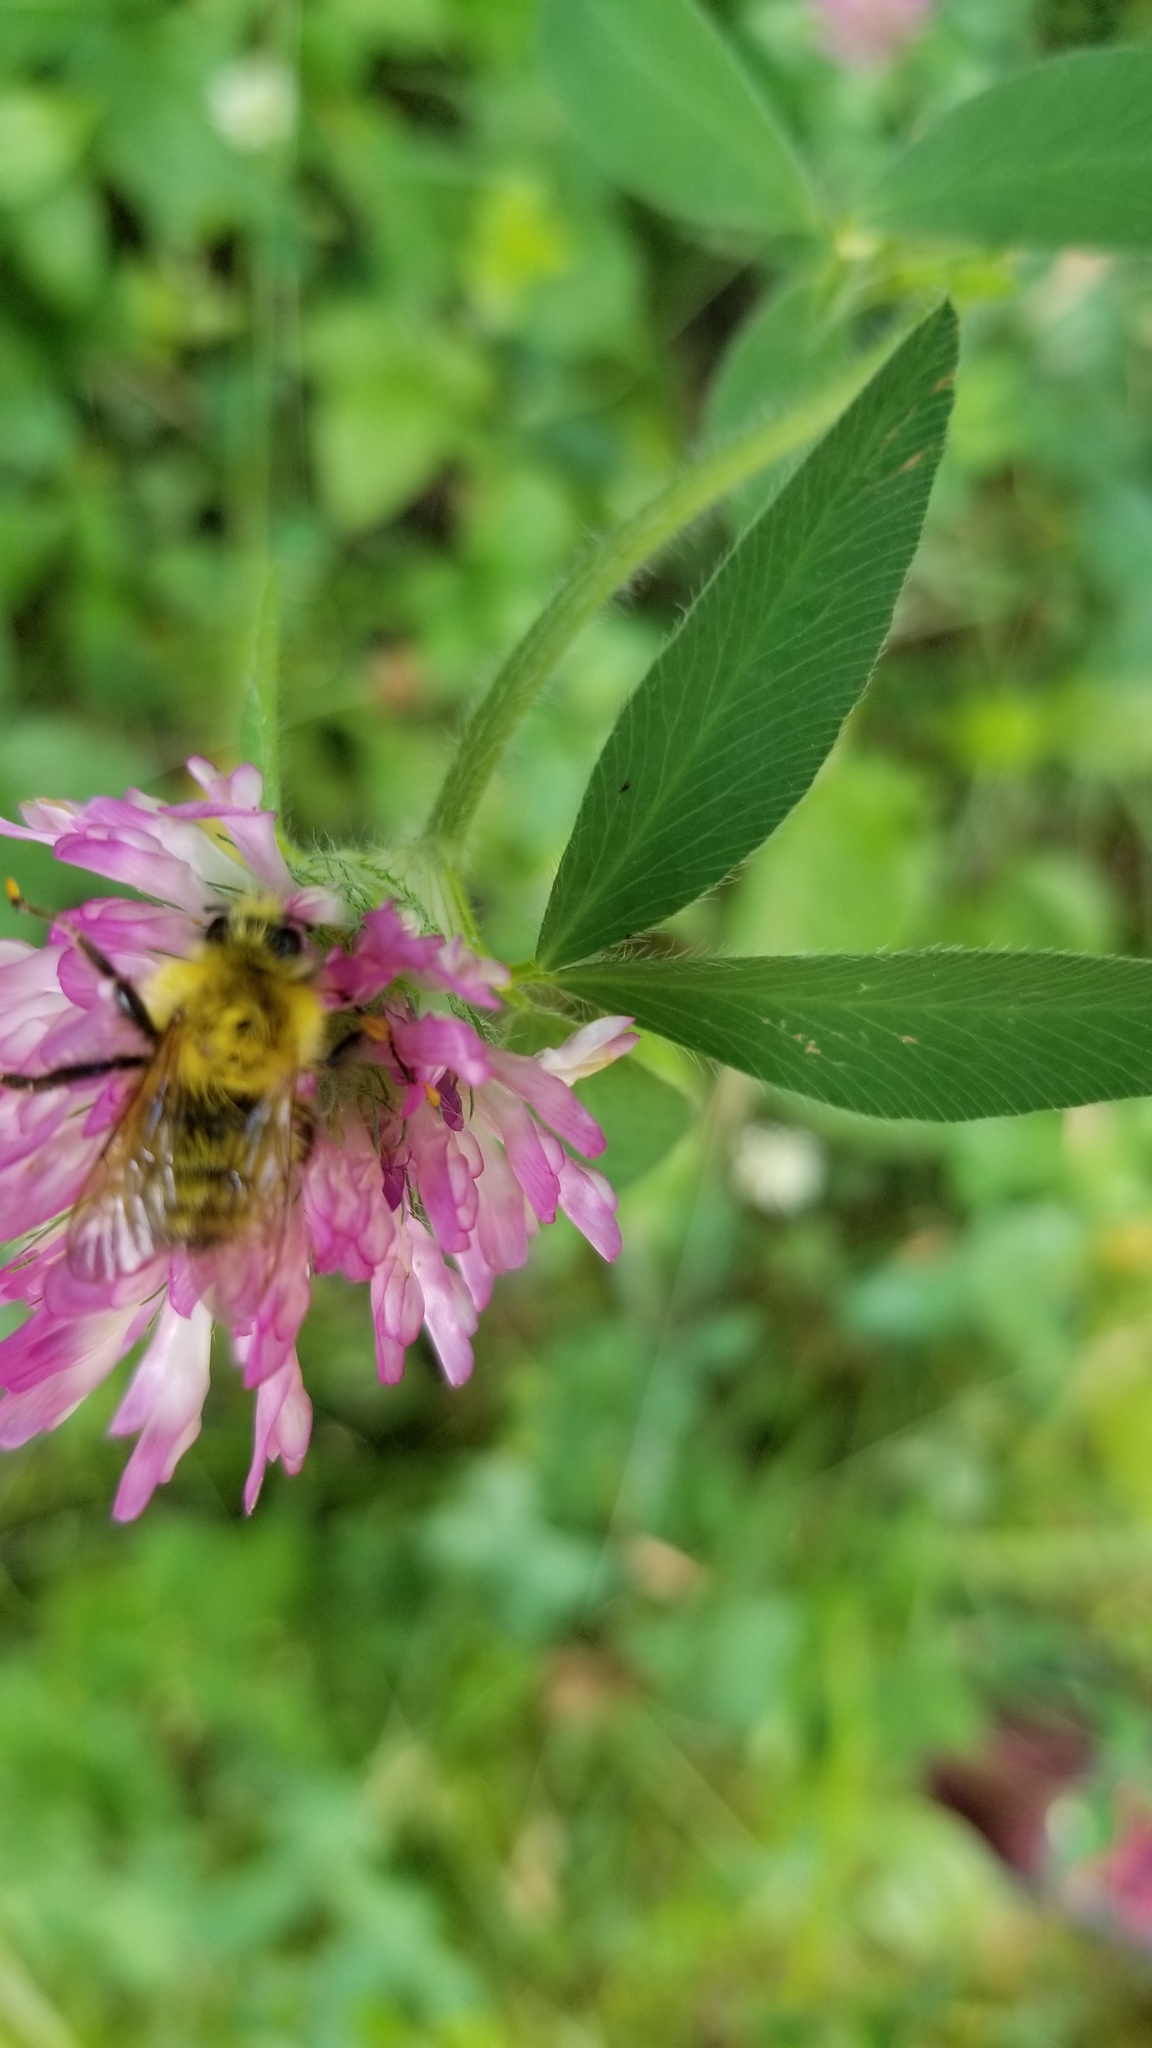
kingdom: Animalia
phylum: Arthropoda
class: Insecta
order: Hymenoptera
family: Apidae
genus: Bombus
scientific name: Bombus perplexus
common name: Confusing bumble bee
